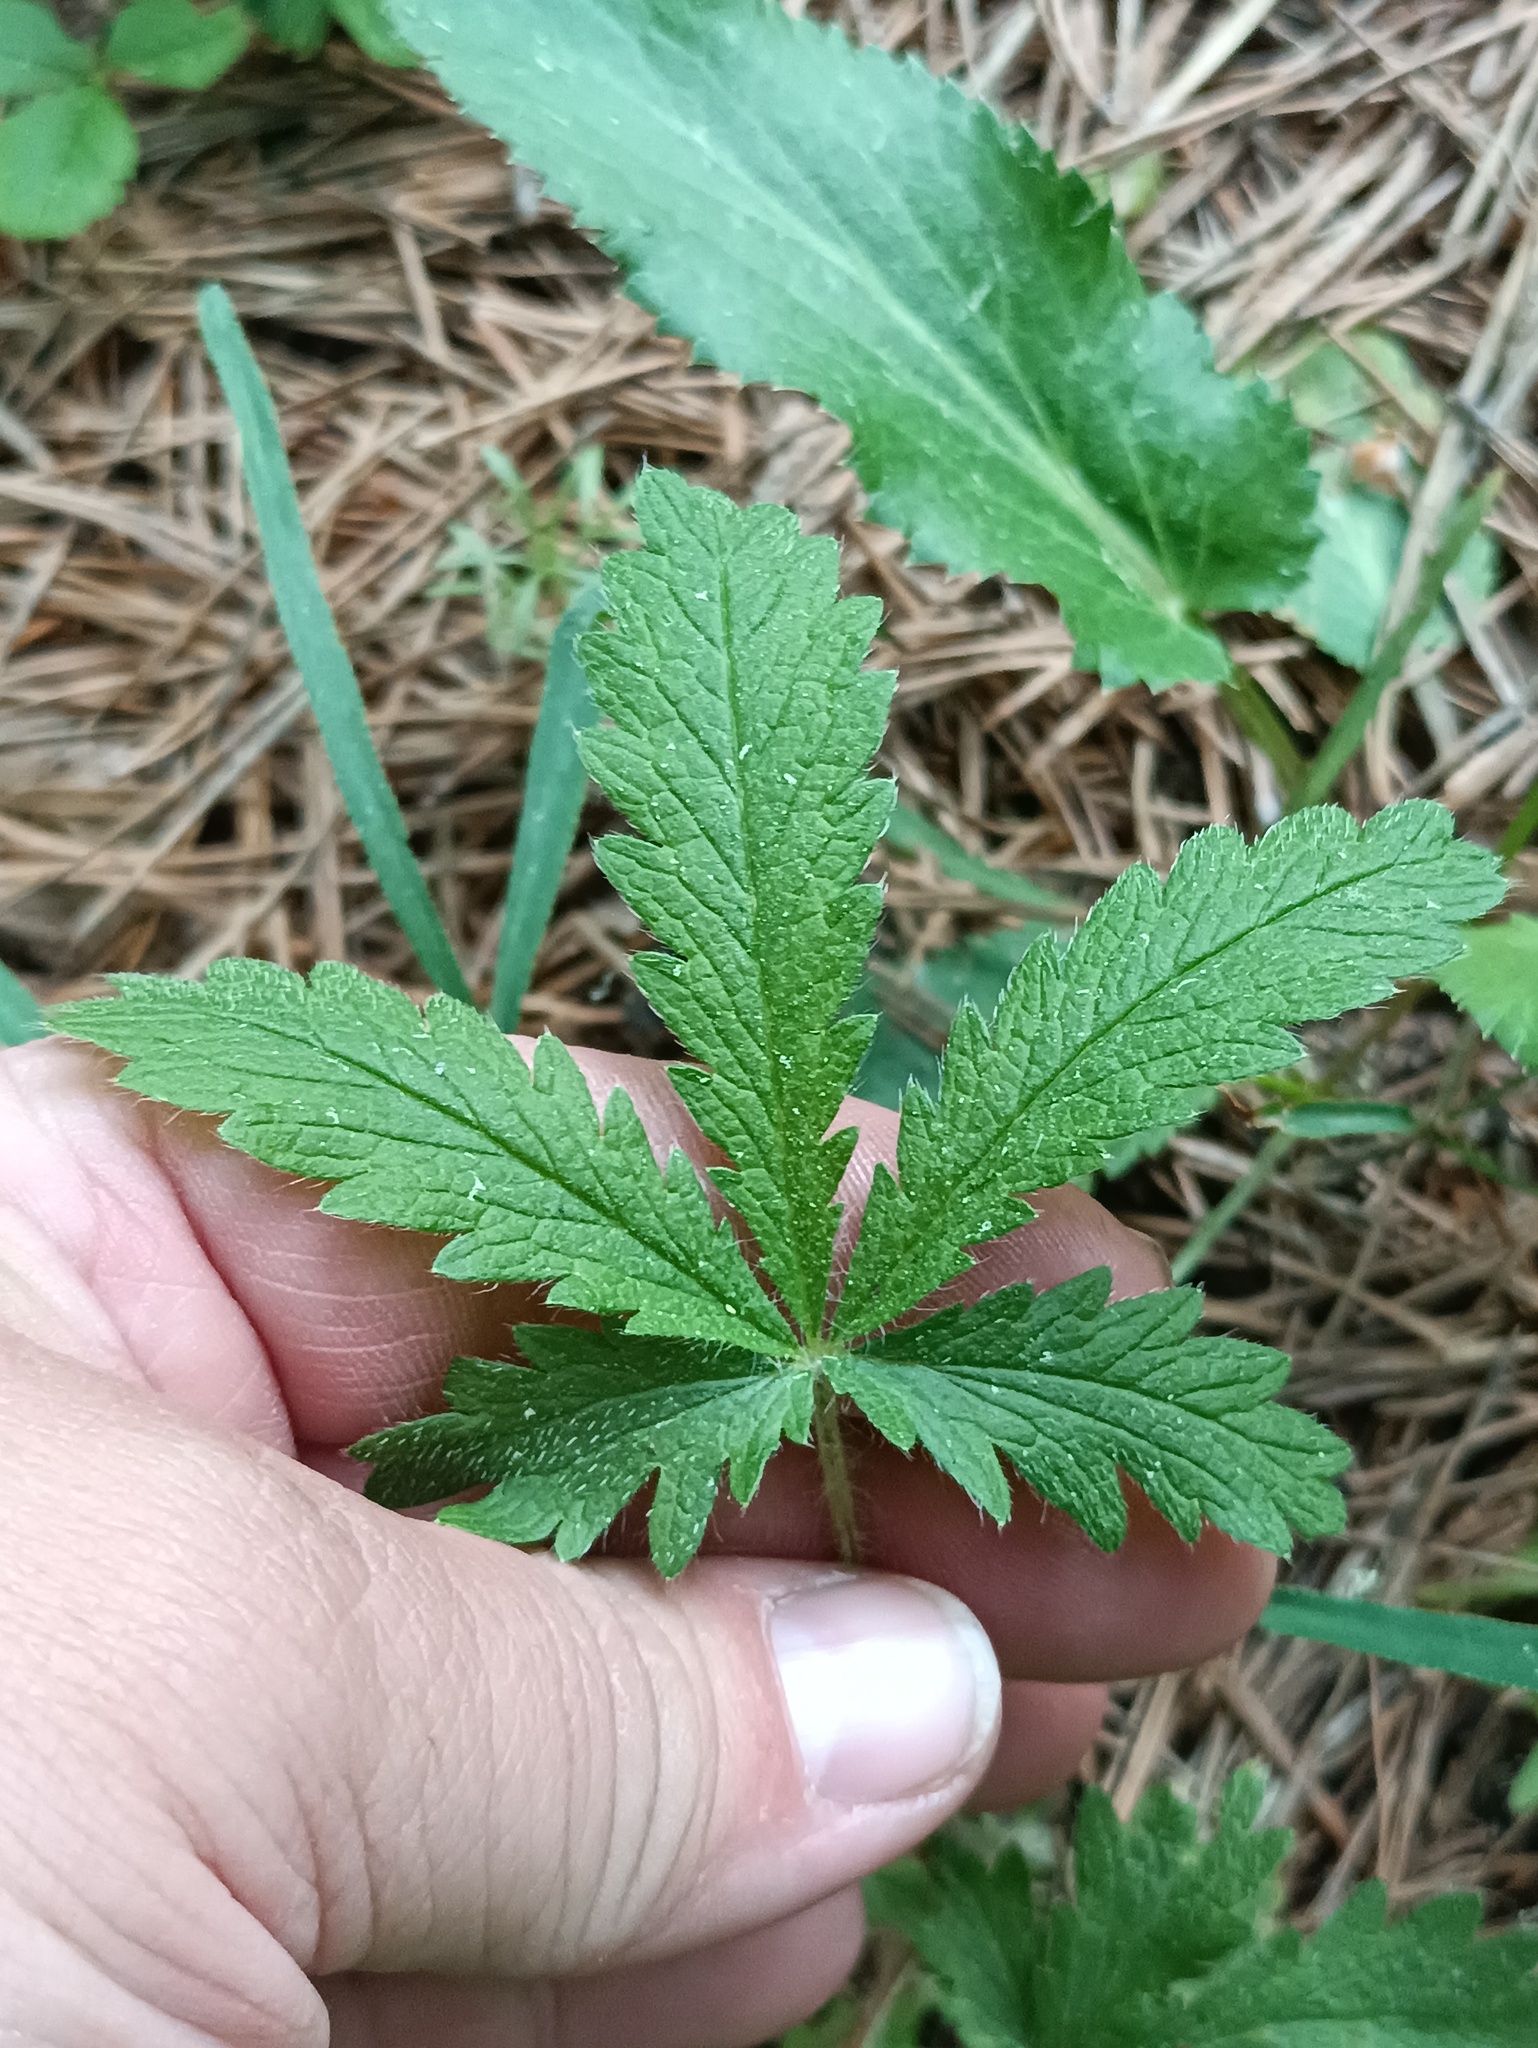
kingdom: Plantae
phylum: Tracheophyta
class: Magnoliopsida
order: Rosales
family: Rosaceae
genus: Potentilla
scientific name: Potentilla recta
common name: Sulphur cinquefoil
